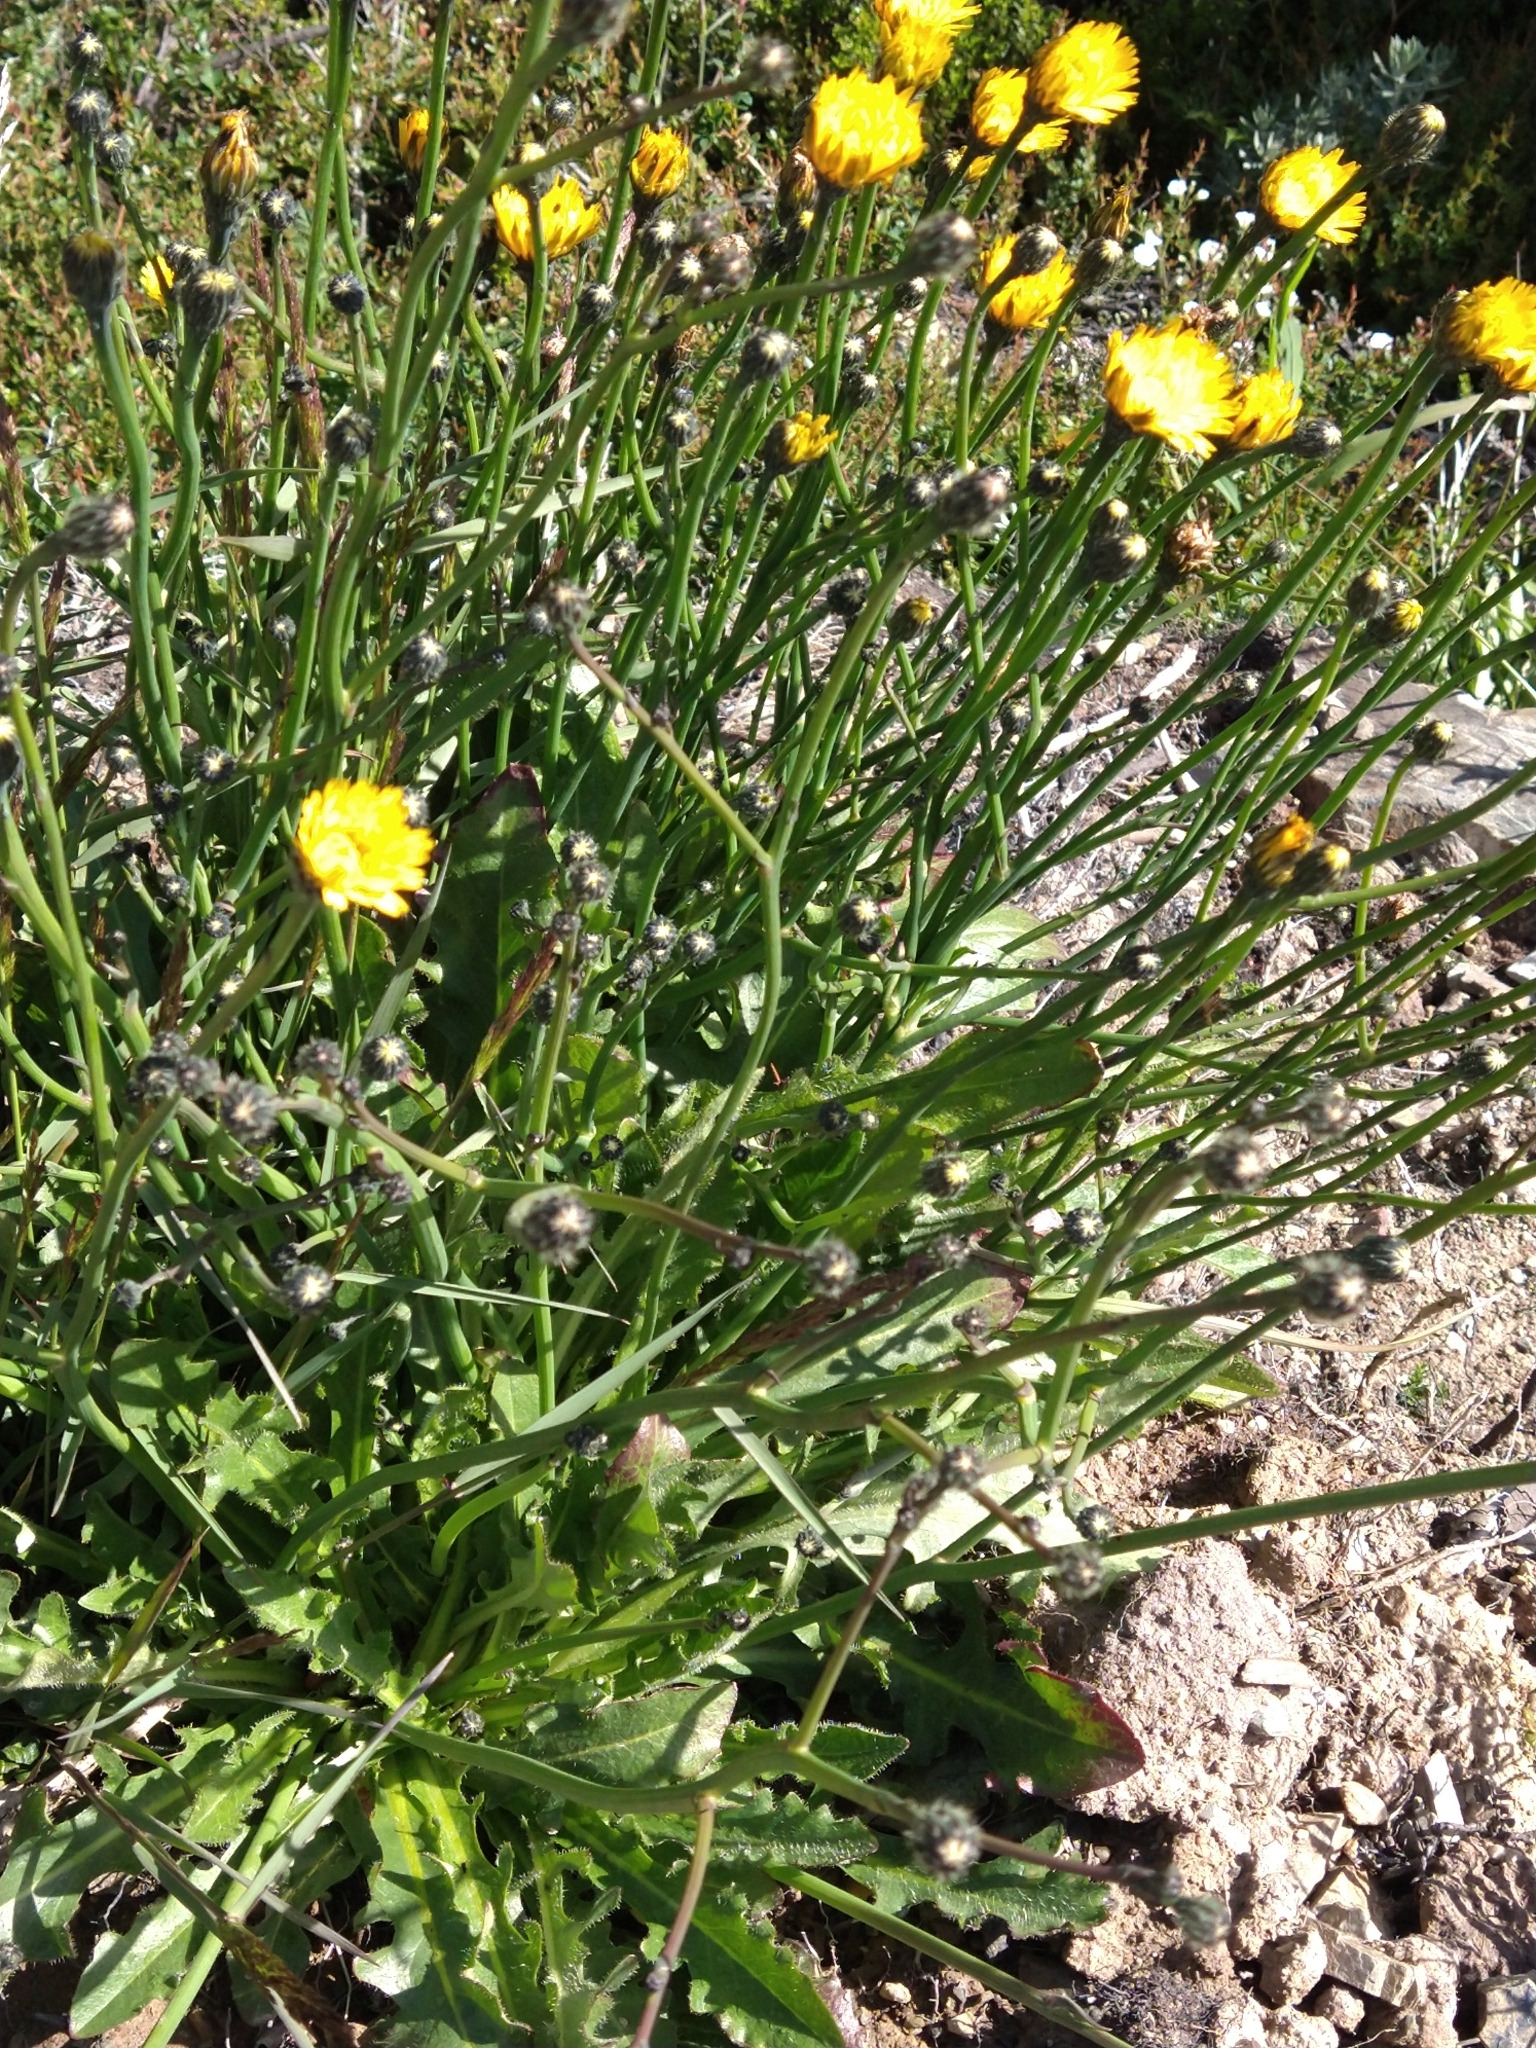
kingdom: Plantae
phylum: Tracheophyta
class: Magnoliopsida
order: Asterales
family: Asteraceae
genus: Hypochaeris
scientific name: Hypochaeris radicata
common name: Flatweed
